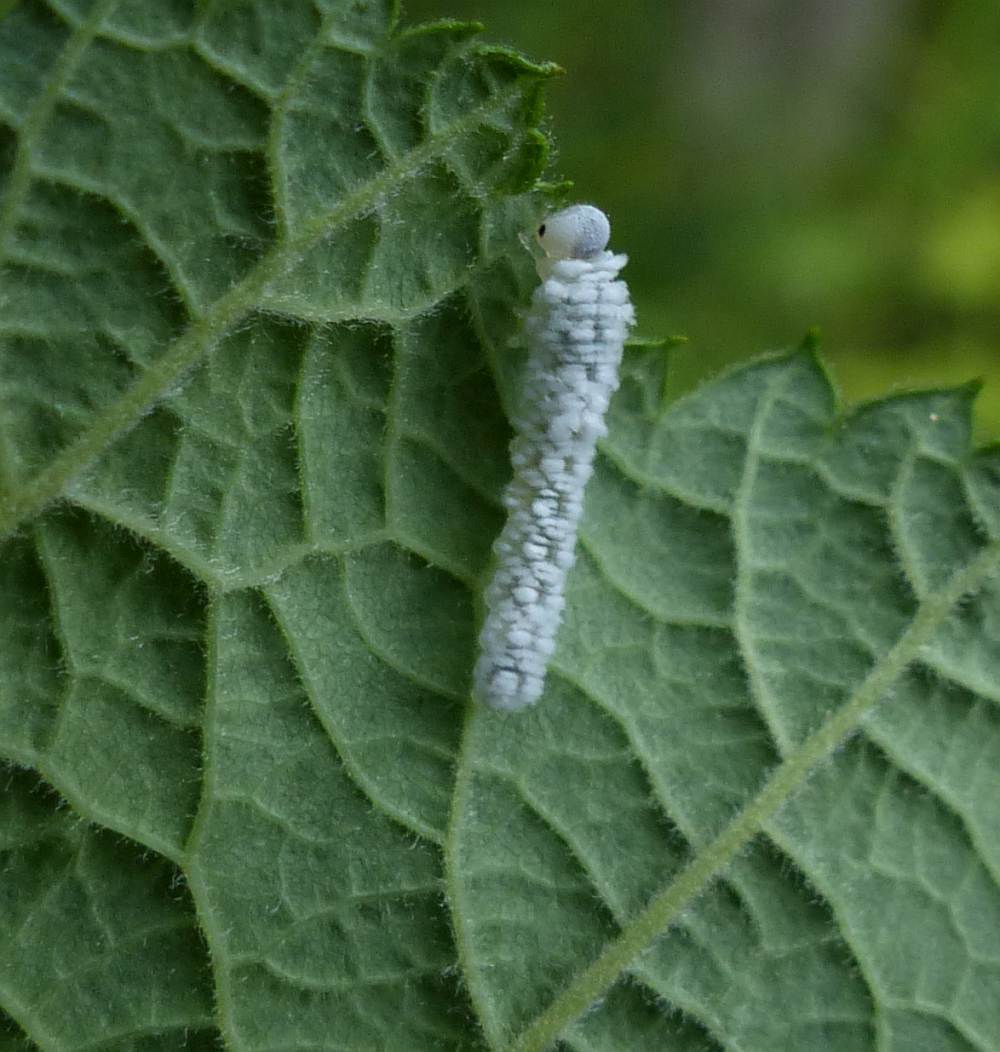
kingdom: Animalia
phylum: Arthropoda
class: Insecta
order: Hymenoptera
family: Tenthredinidae
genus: Eriocampa
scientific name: Eriocampa ovata
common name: Alder wooly sawfly
